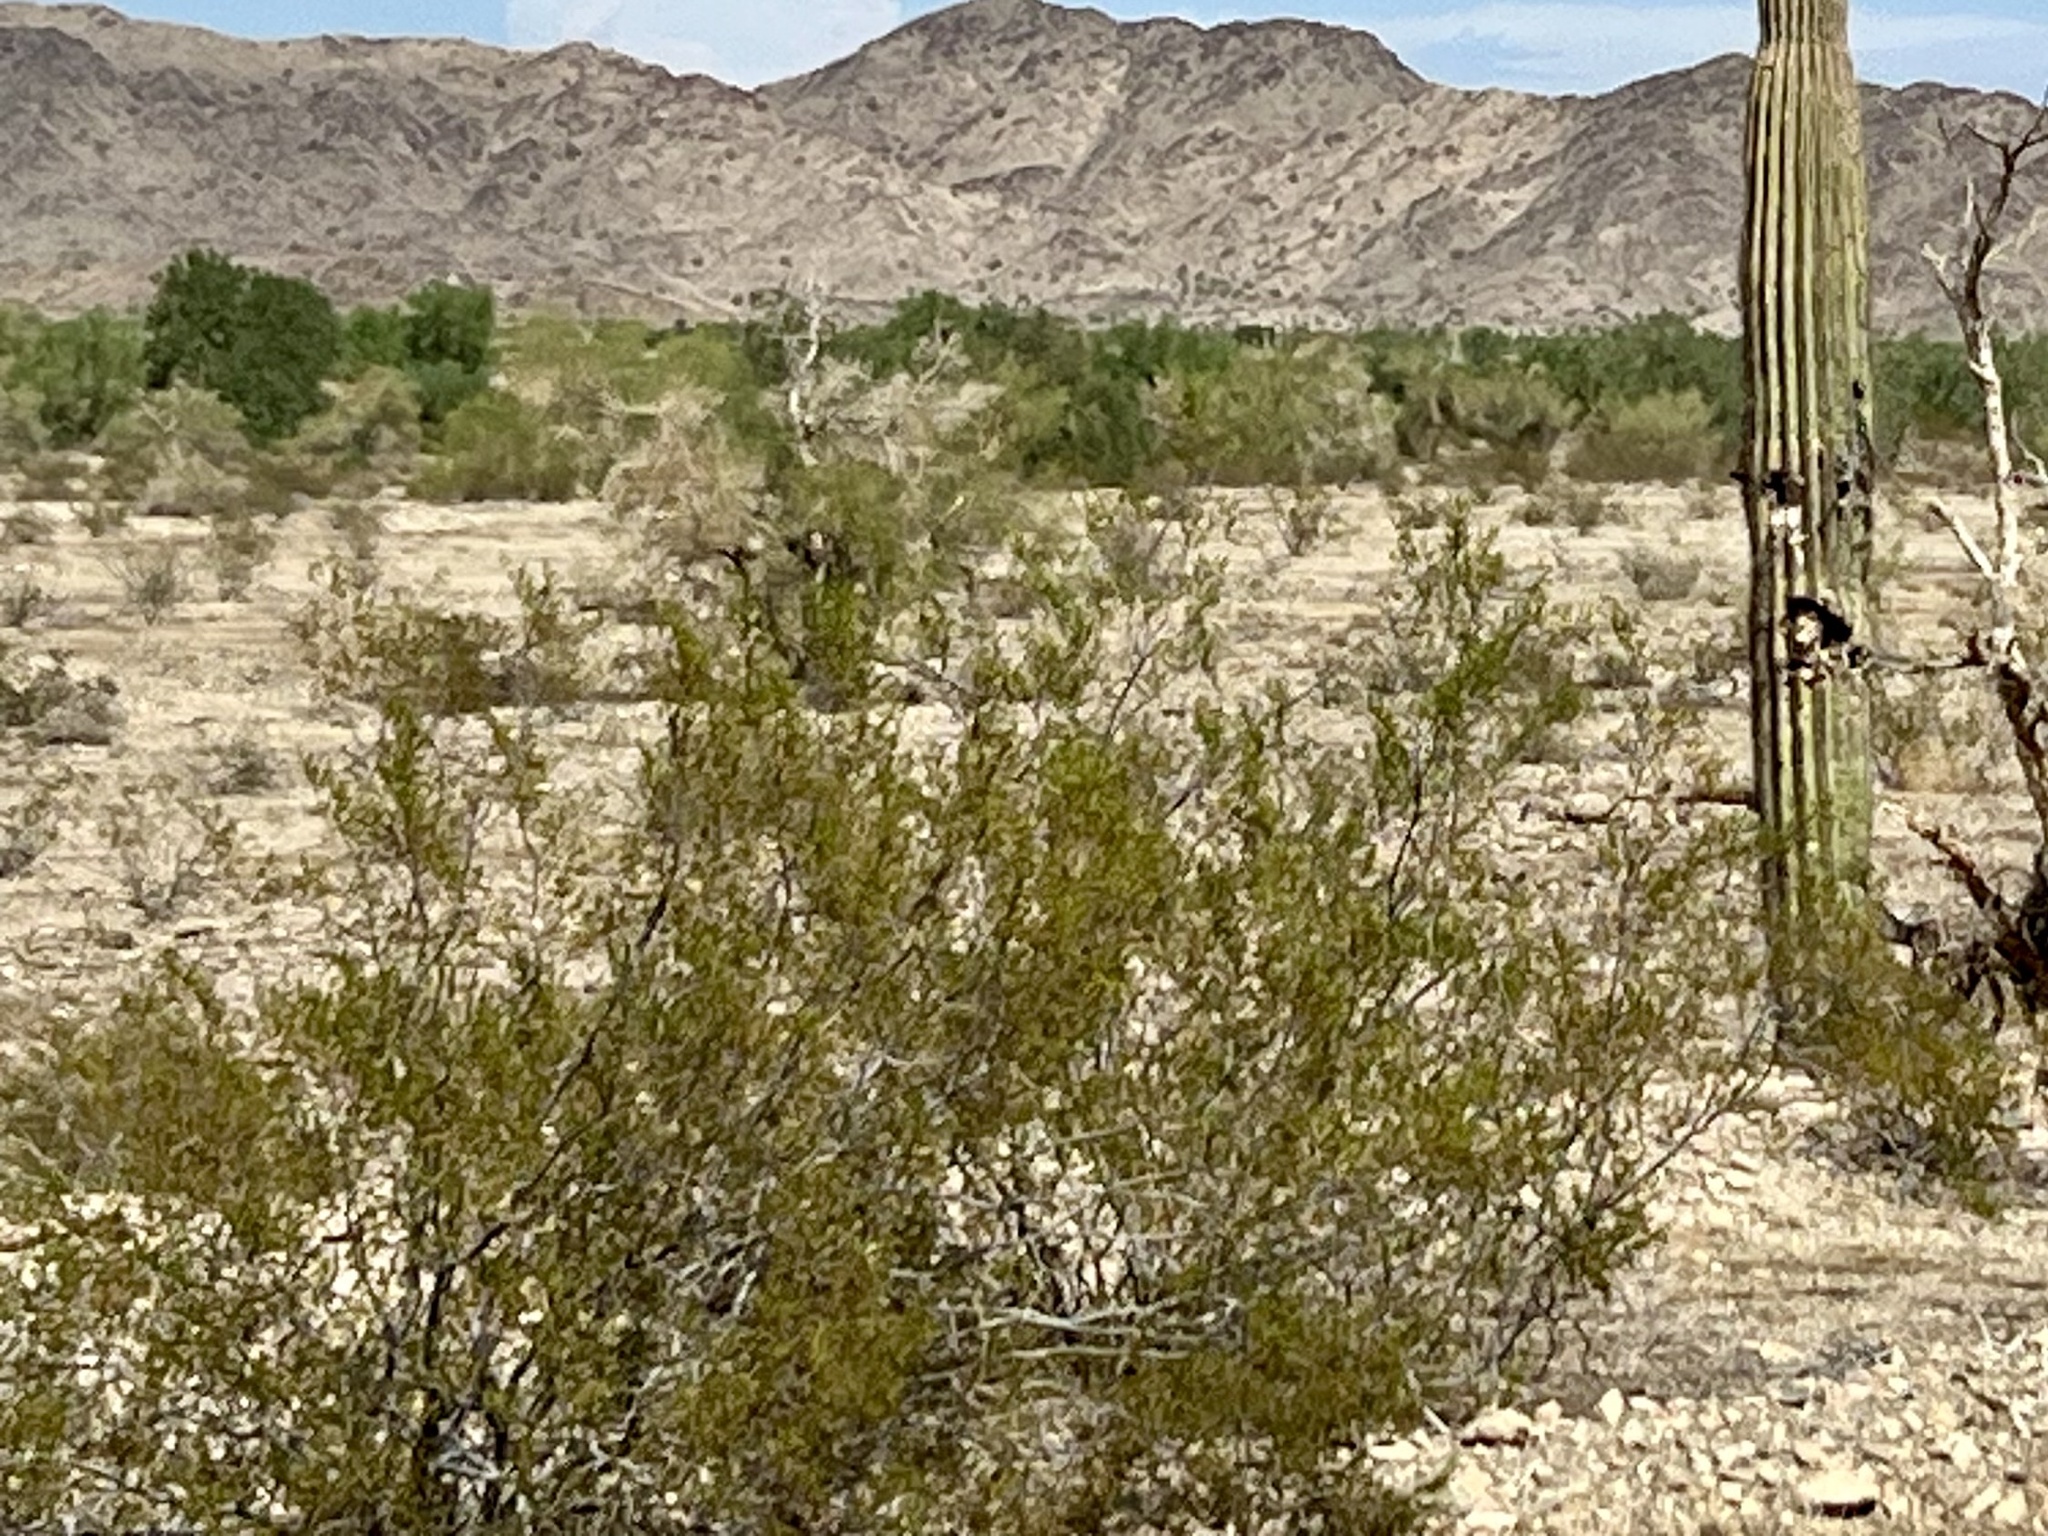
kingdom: Plantae
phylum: Tracheophyta
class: Magnoliopsida
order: Zygophyllales
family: Zygophyllaceae
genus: Larrea
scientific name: Larrea tridentata
